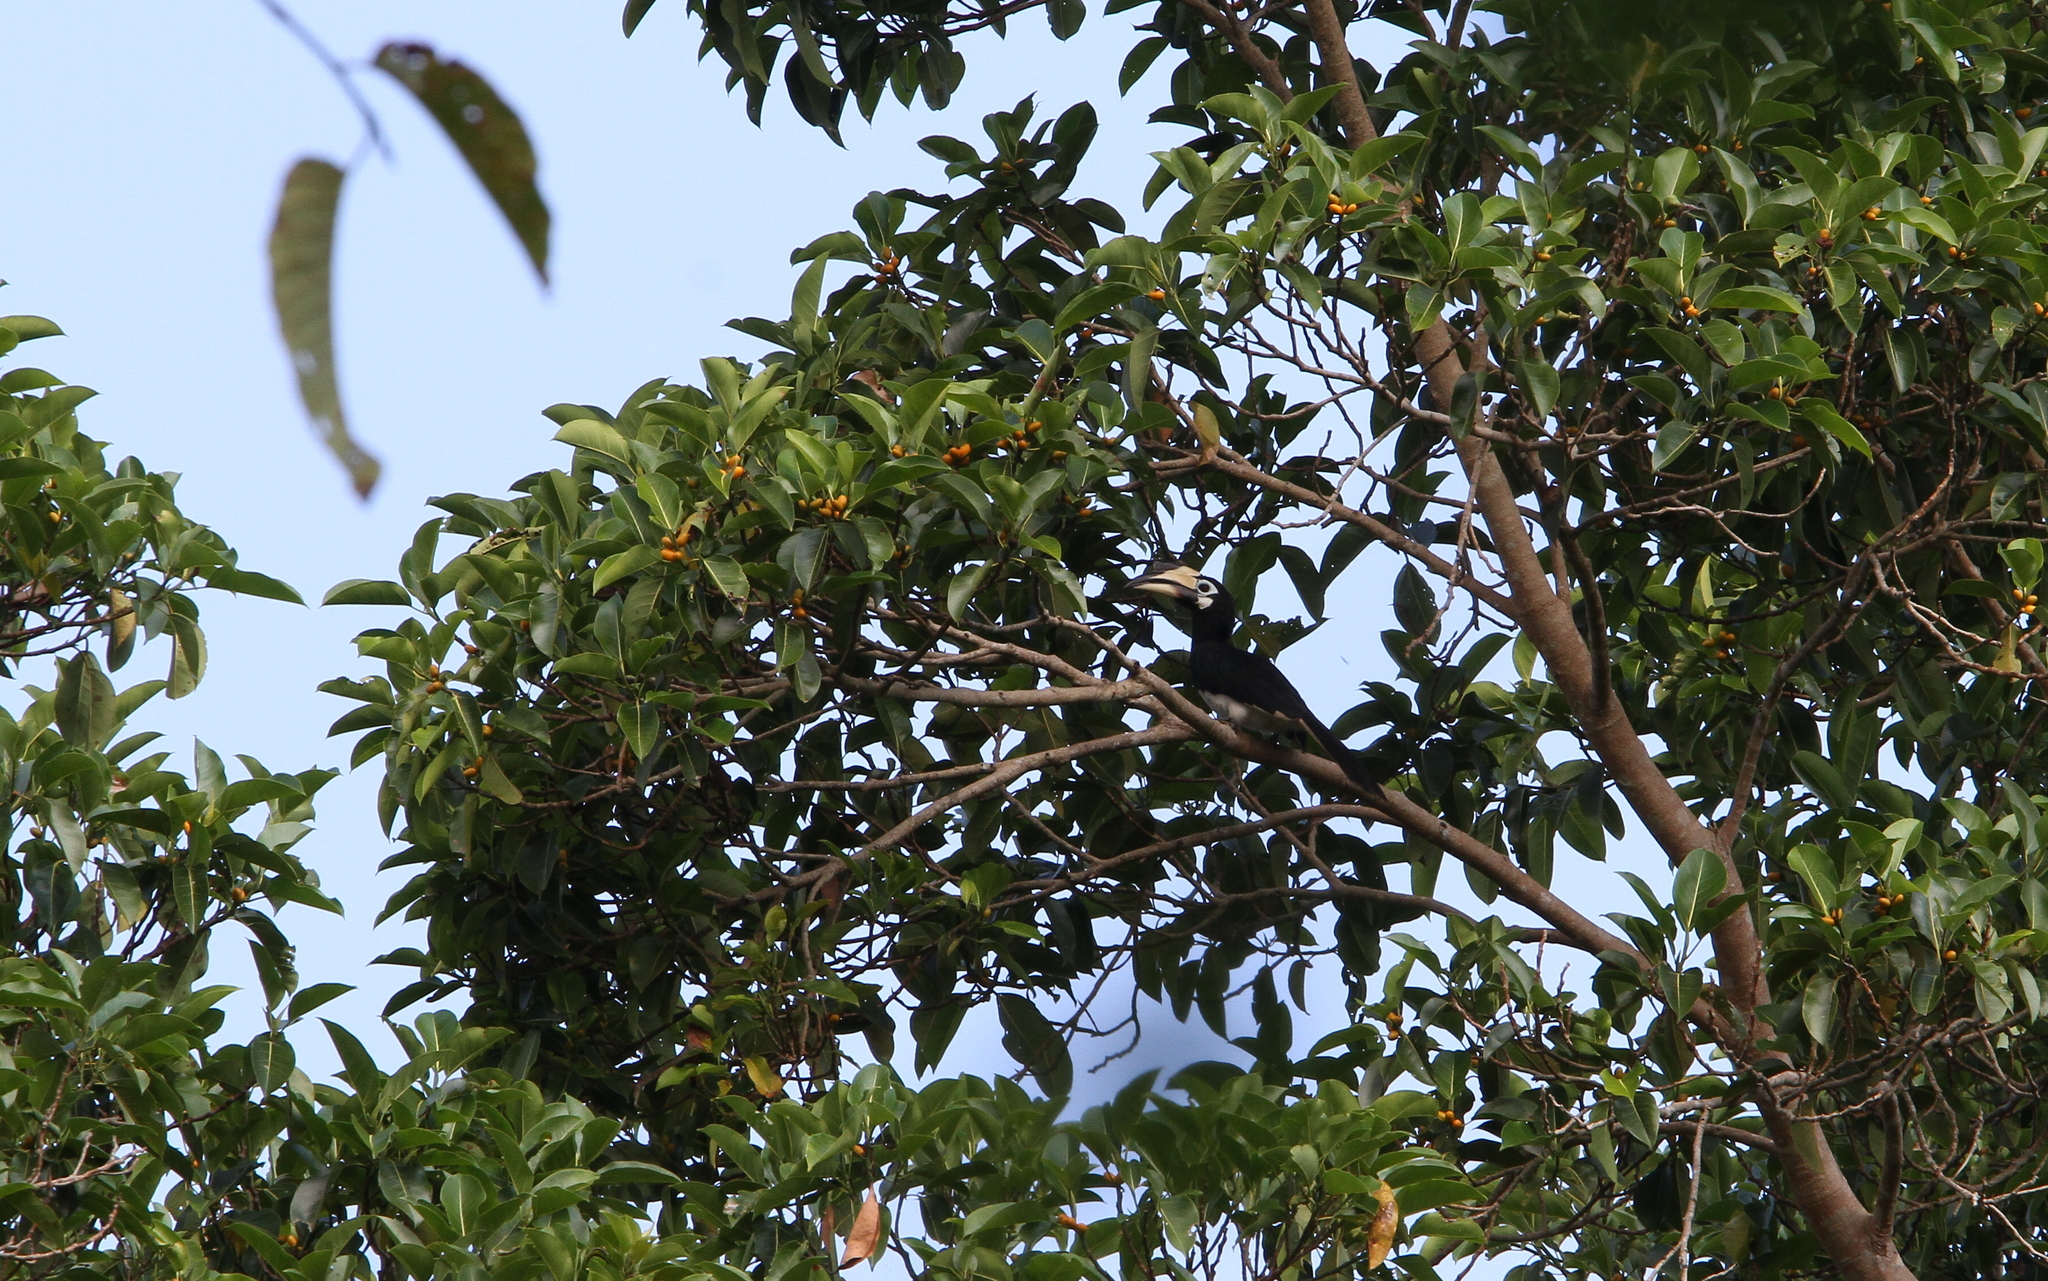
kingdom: Animalia
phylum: Chordata
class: Aves
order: Bucerotiformes
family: Bucerotidae
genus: Anthracoceros
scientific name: Anthracoceros albirostris
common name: Oriental pied-hornbill
